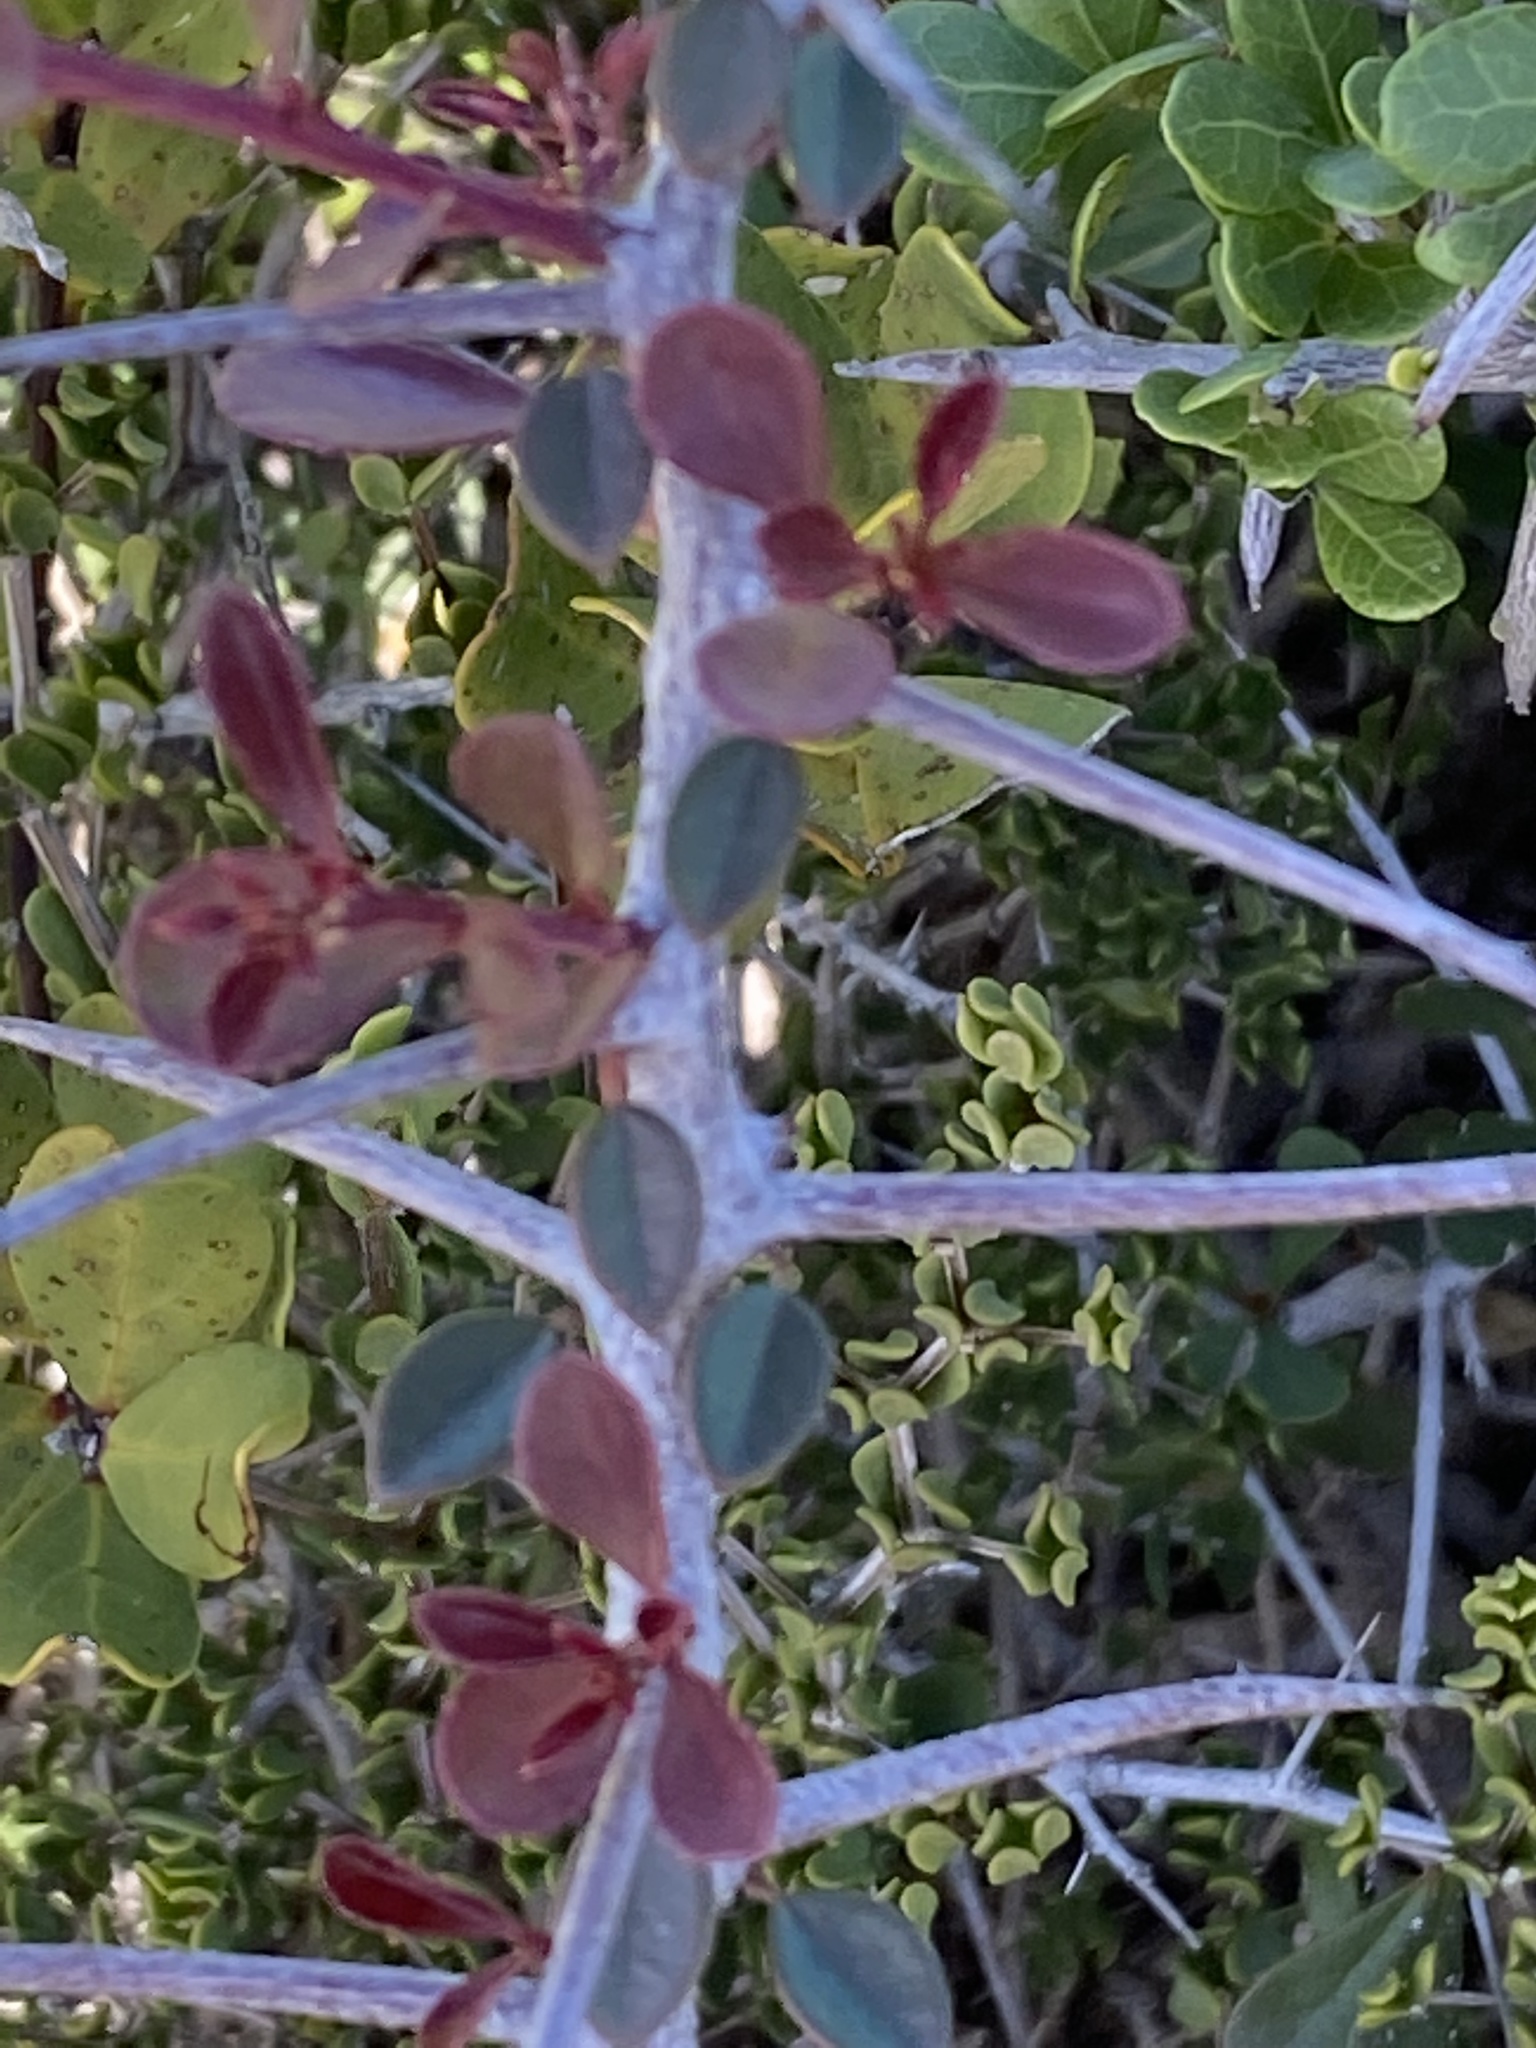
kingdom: Plantae
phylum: Tracheophyta
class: Magnoliopsida
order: Celastrales
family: Celastraceae
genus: Putterlickia
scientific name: Putterlickia pyracantha
